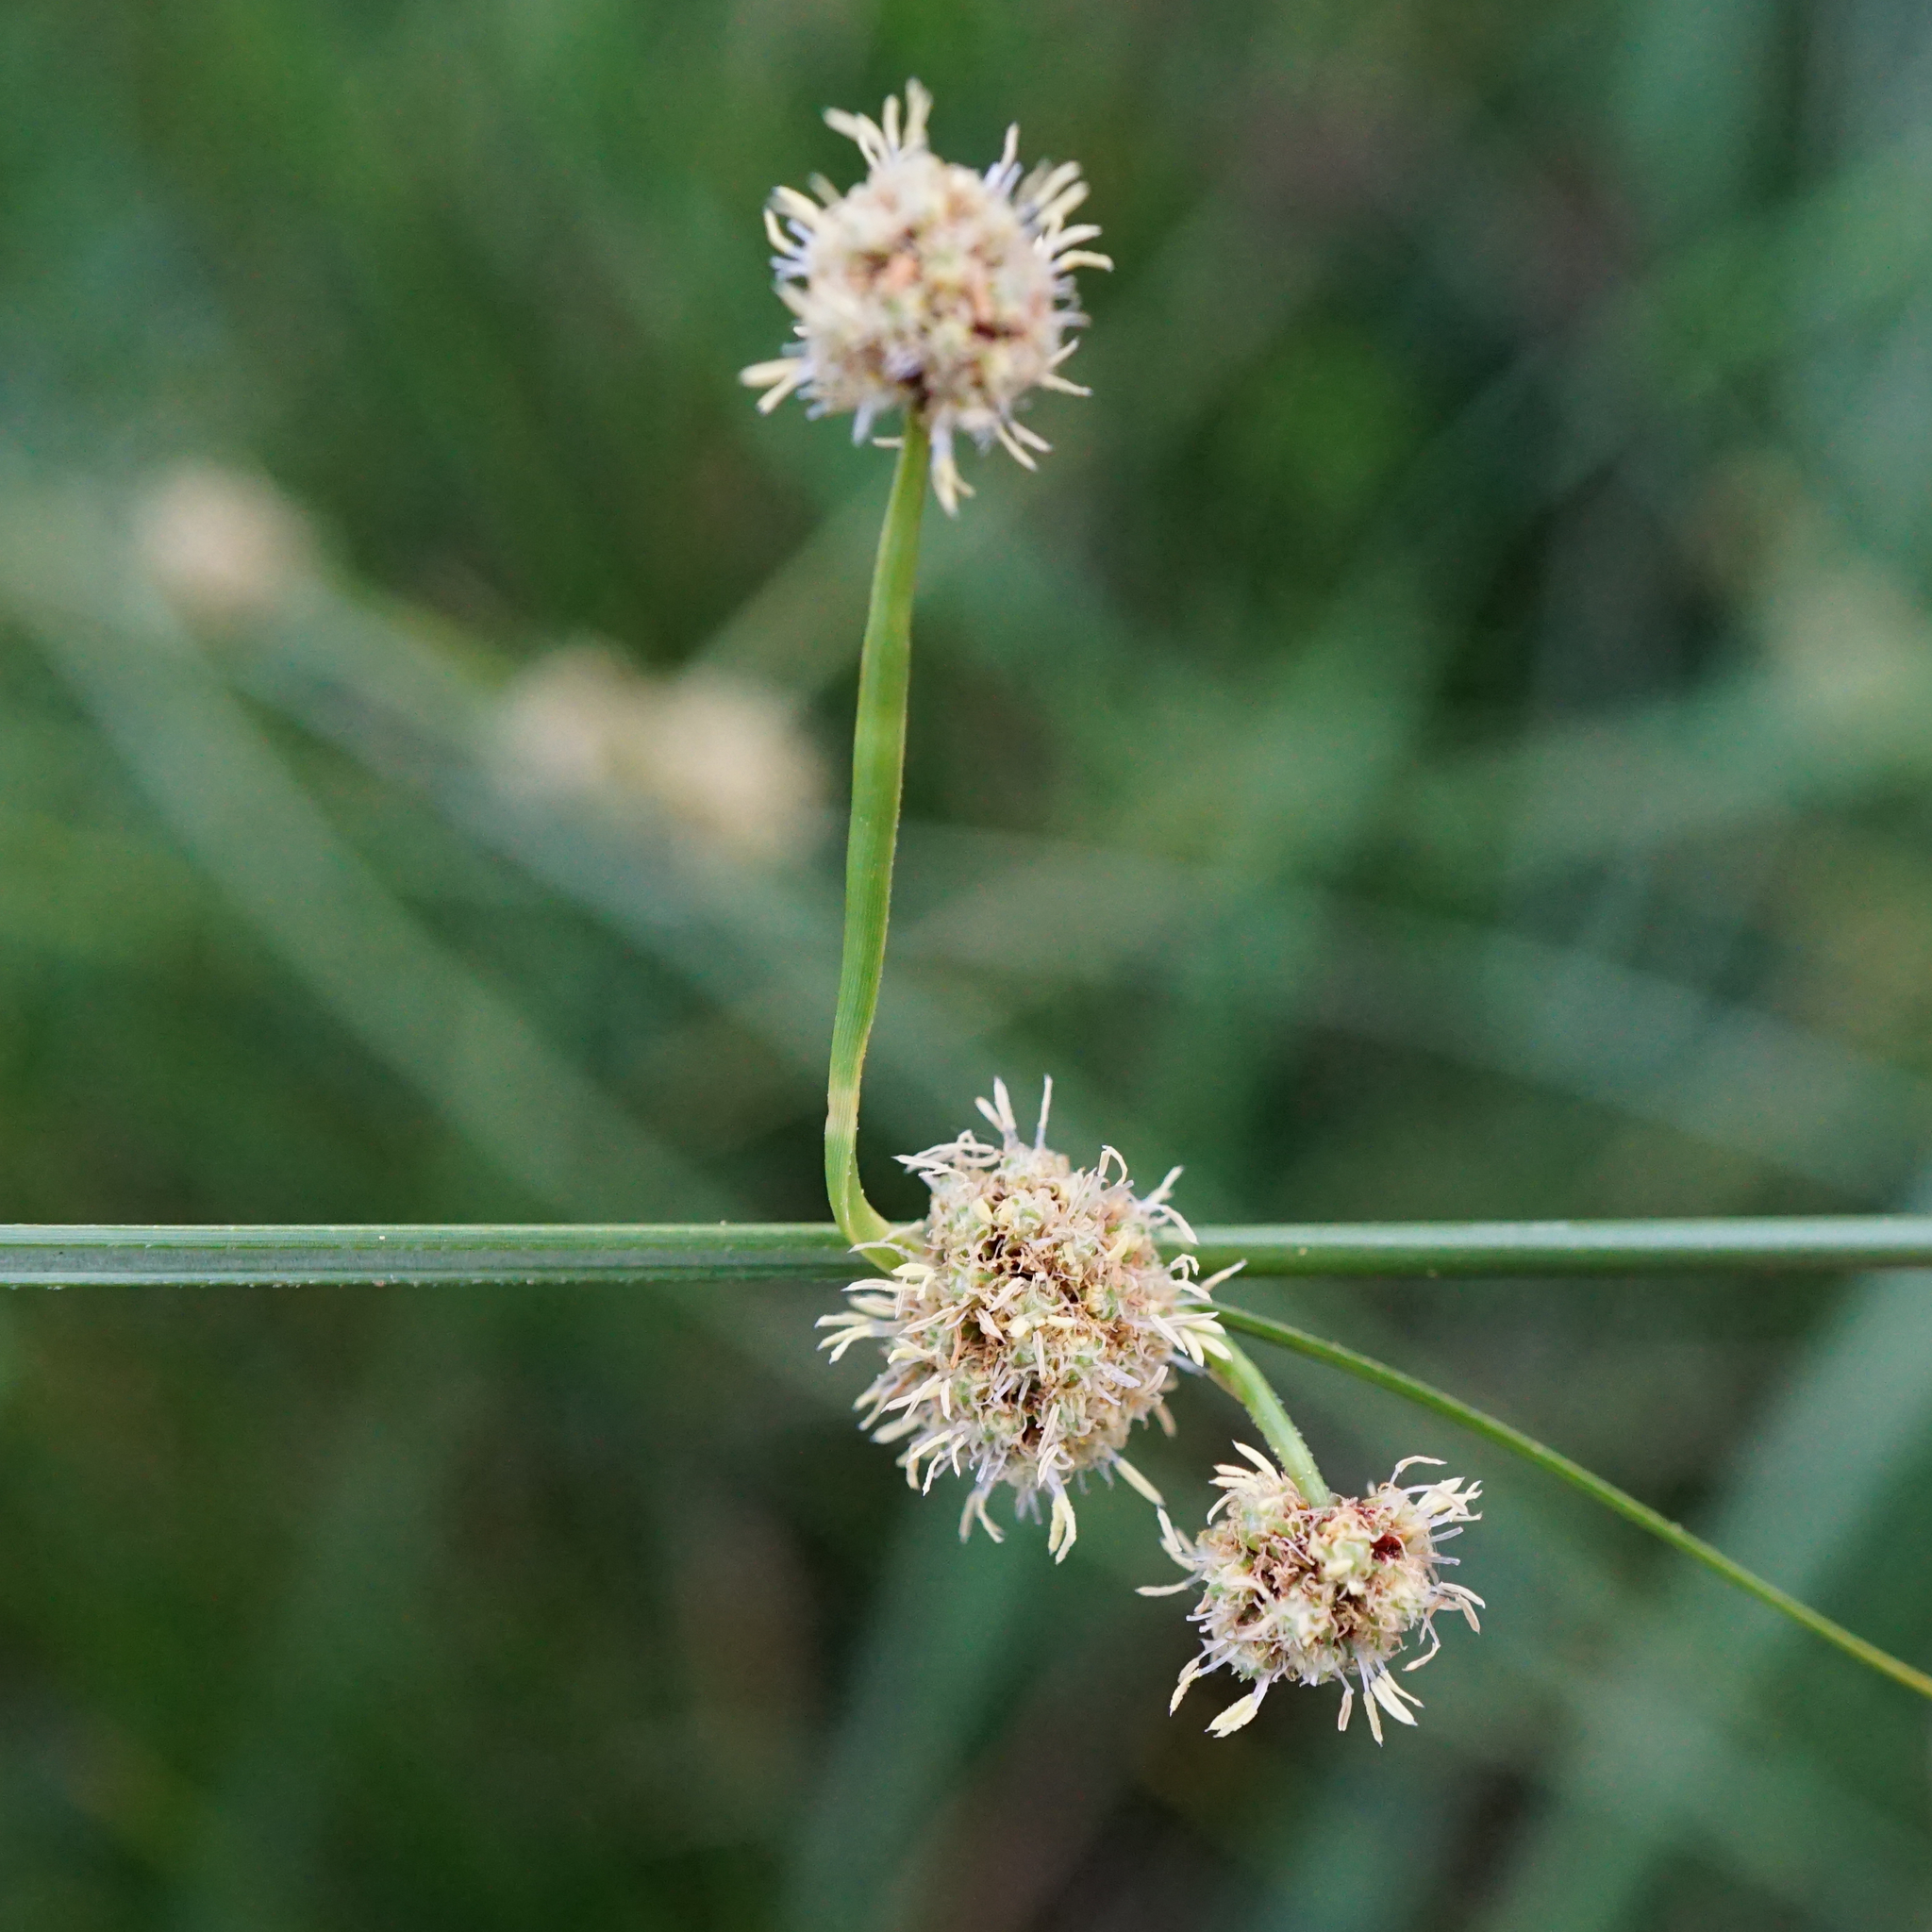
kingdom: Plantae
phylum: Tracheophyta
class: Liliopsida
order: Poales
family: Cyperaceae
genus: Scirpoides
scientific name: Scirpoides holoschoenus
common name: Round-headed club-rush
